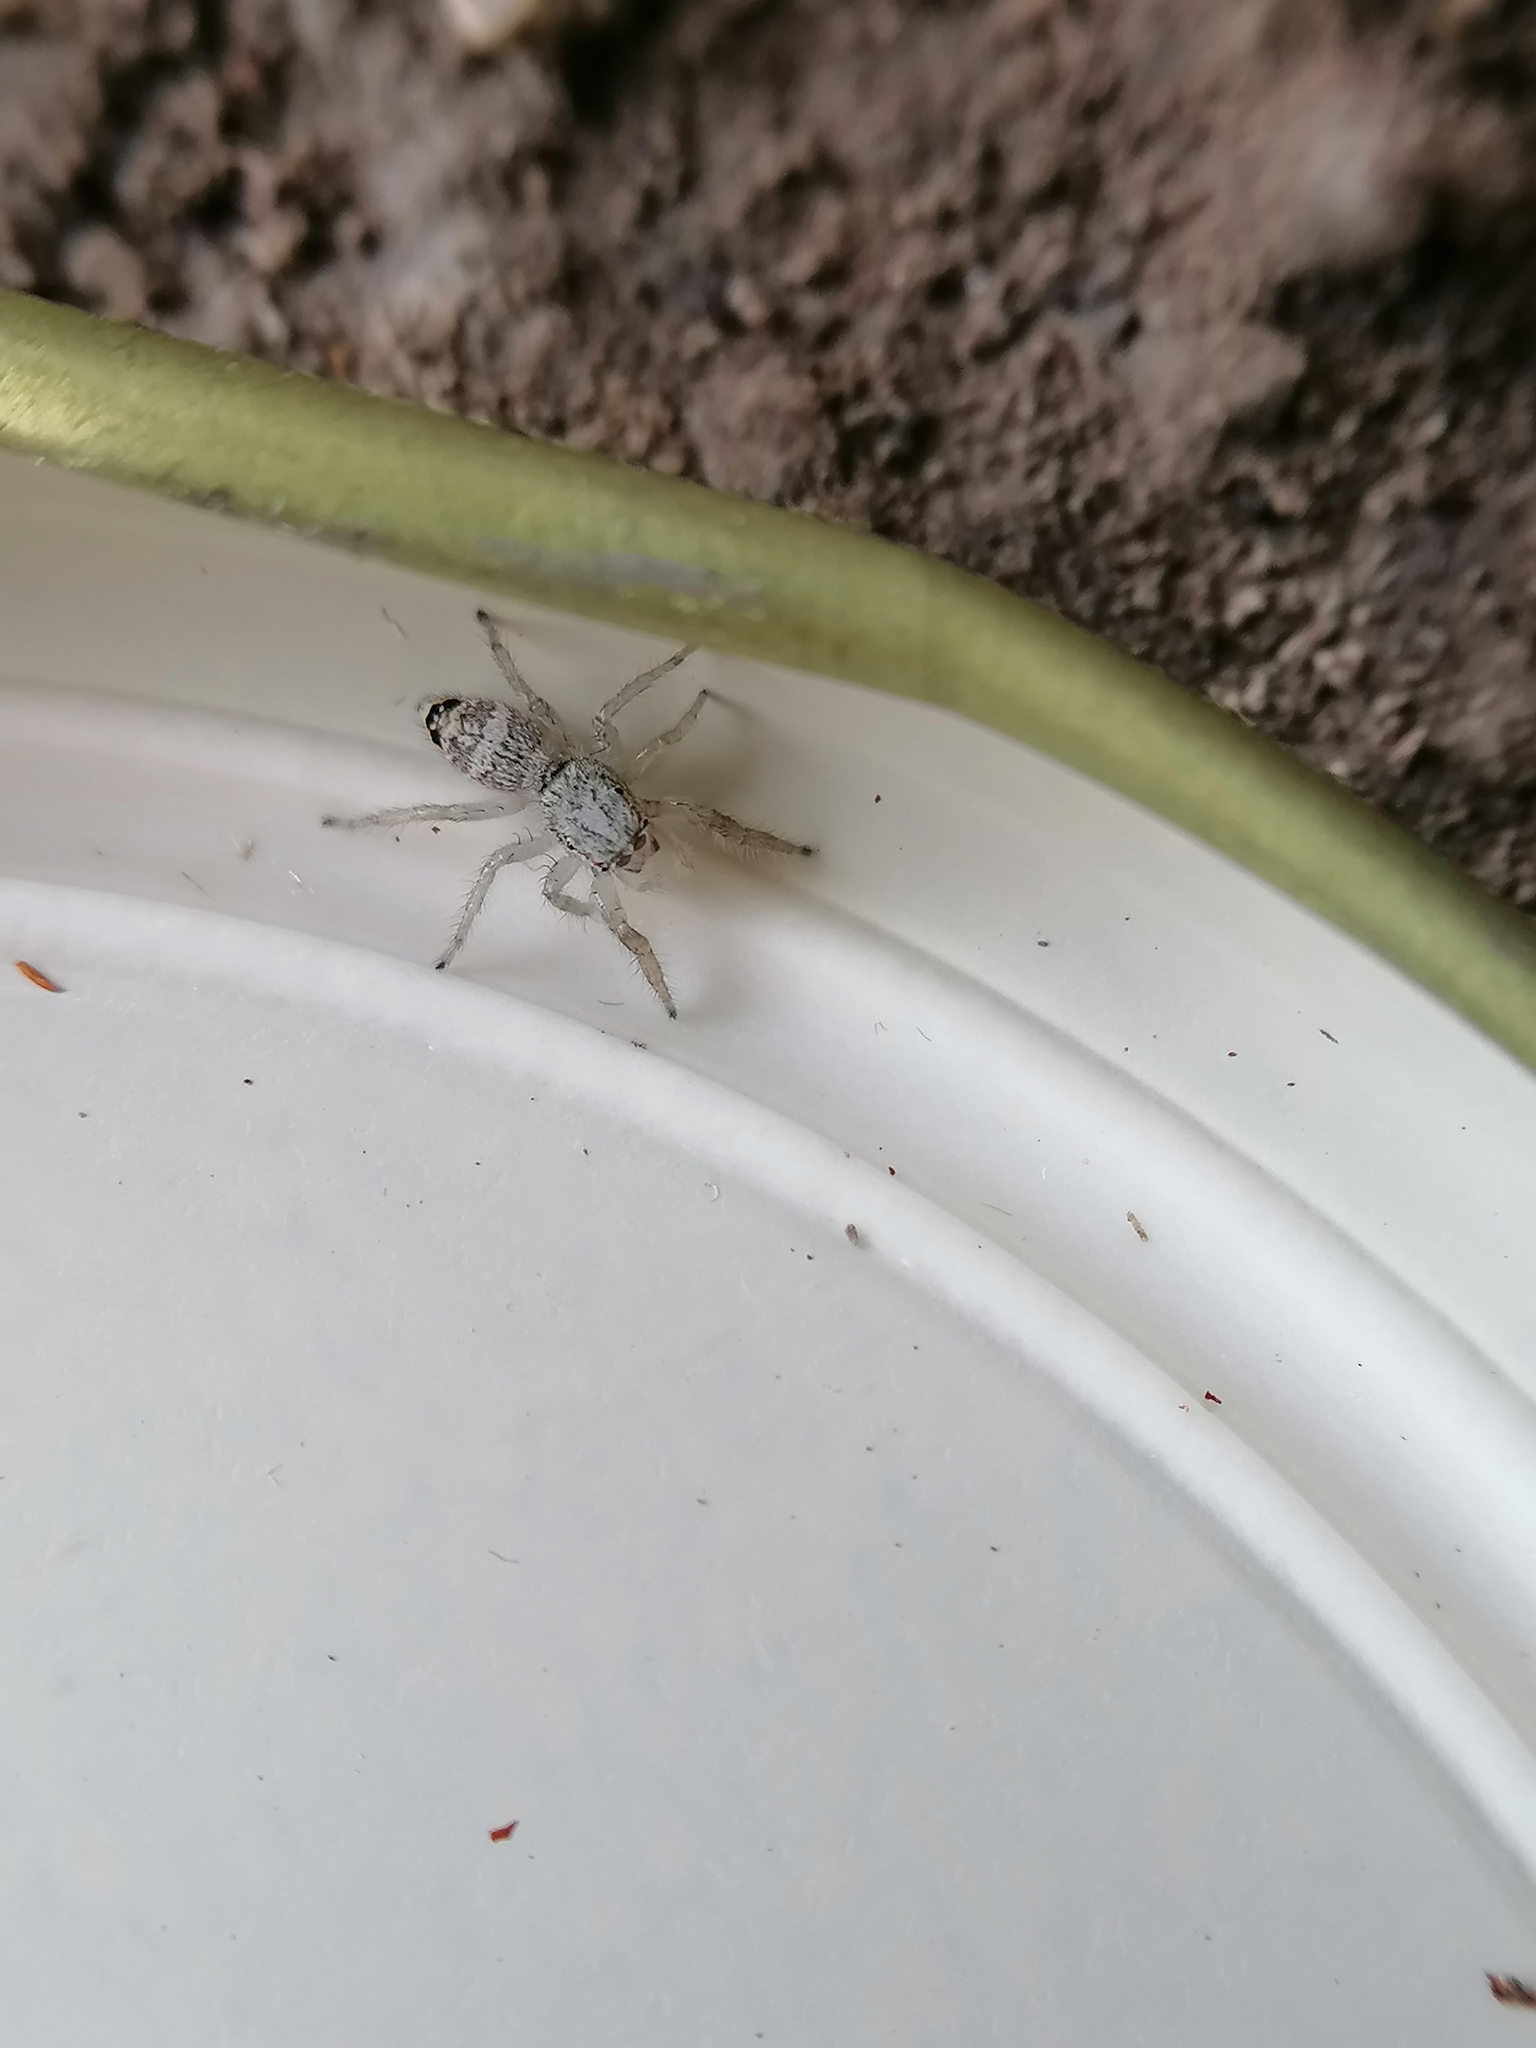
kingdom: Animalia
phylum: Arthropoda
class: Arachnida
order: Araneae
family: Salticidae
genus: Rudakius
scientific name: Rudakius cinctus
